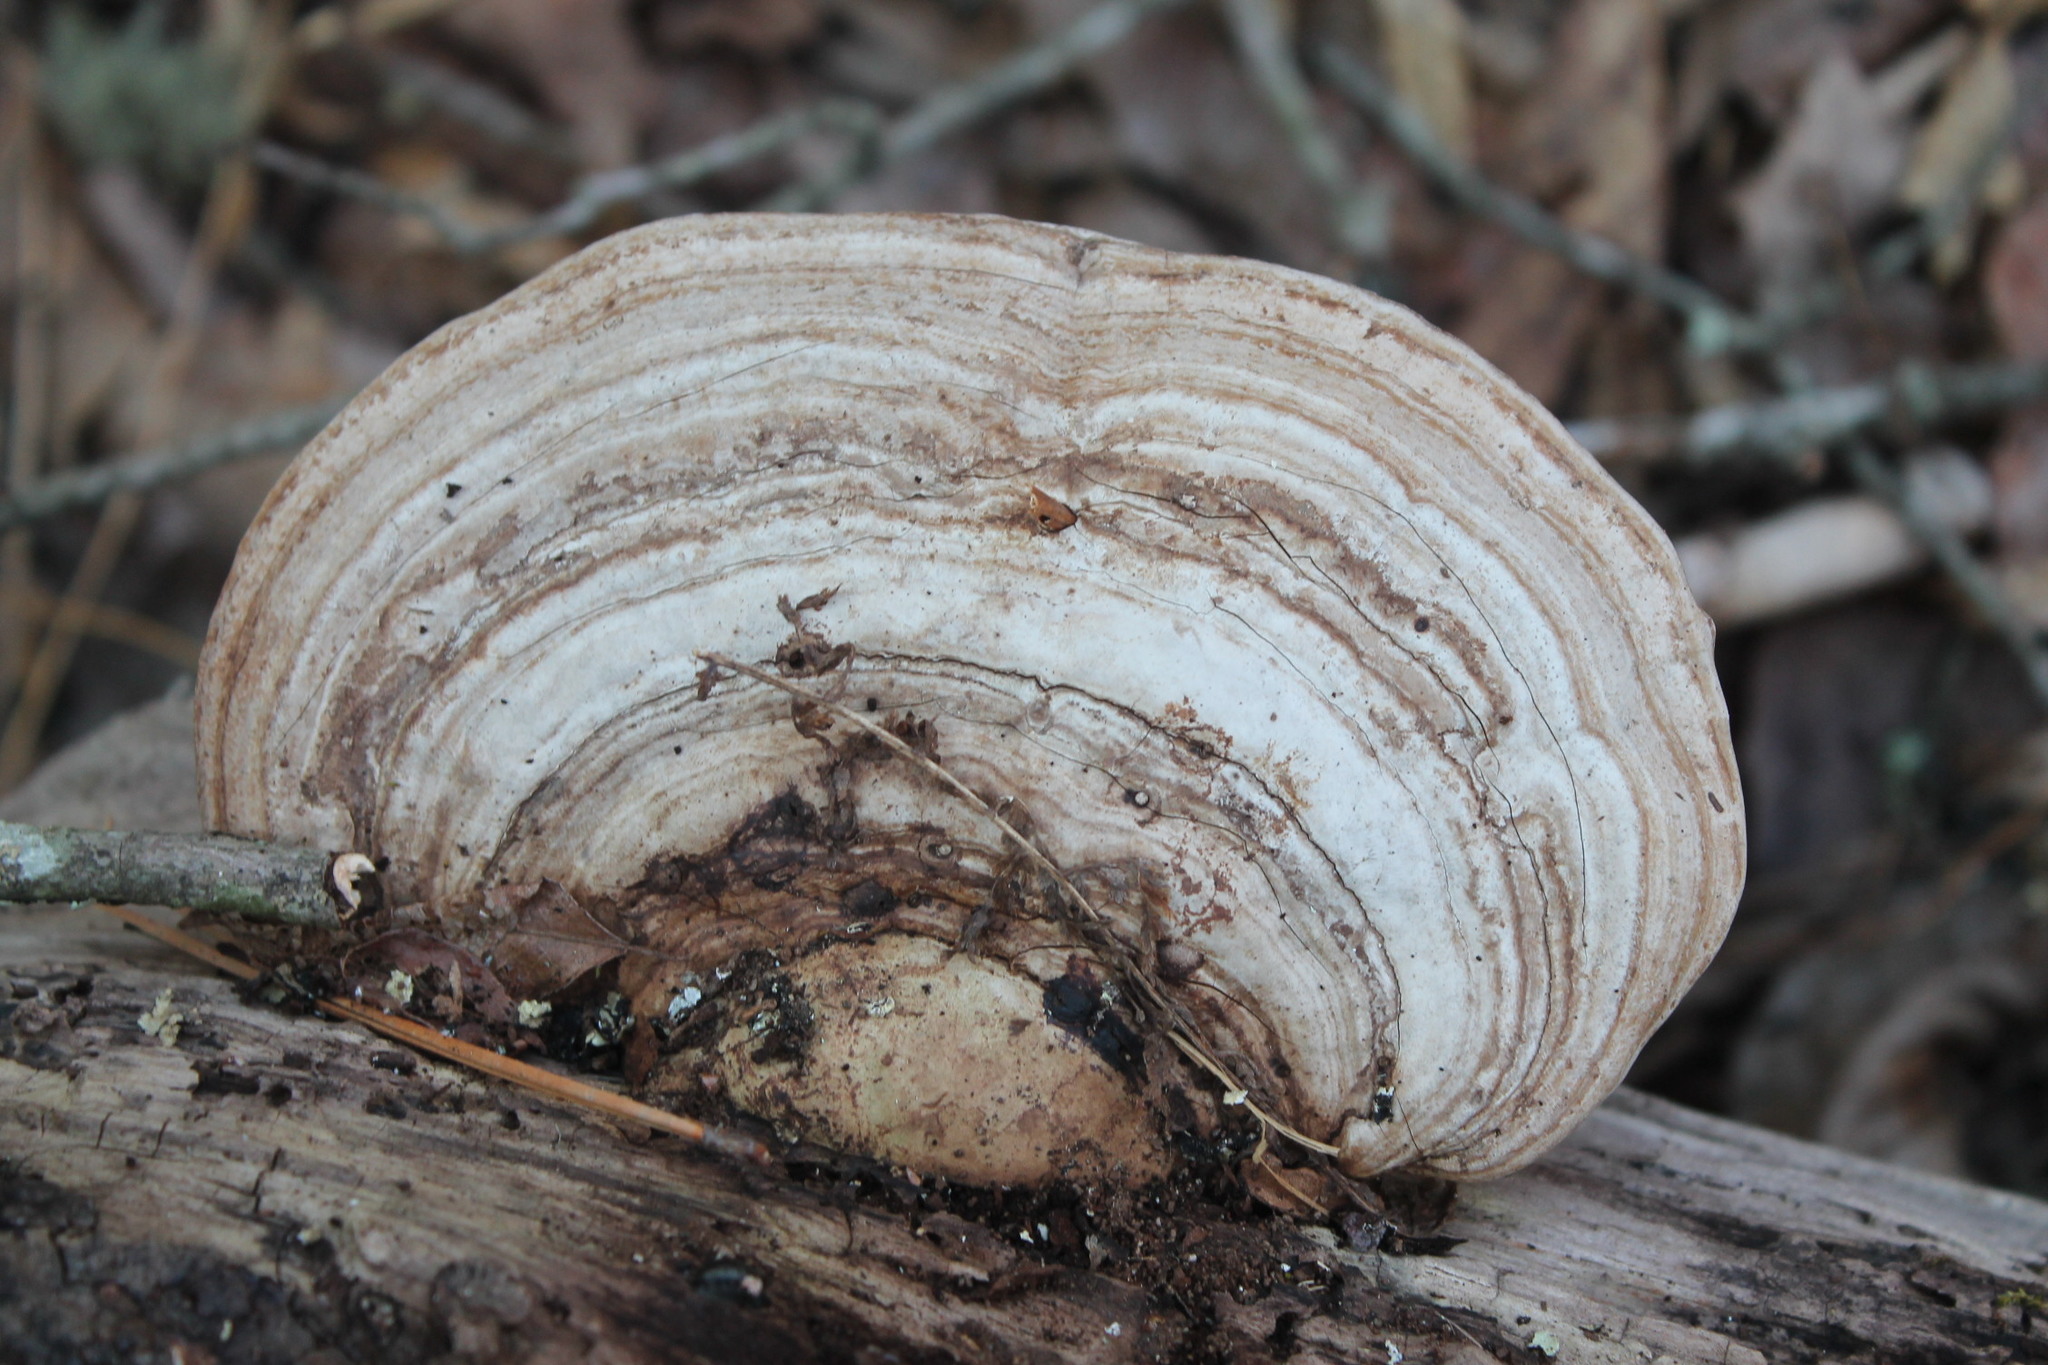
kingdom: Fungi
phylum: Basidiomycota
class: Agaricomycetes
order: Polyporales
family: Polyporaceae
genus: Ganoderma
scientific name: Ganoderma applanatum
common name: Artist's bracket
